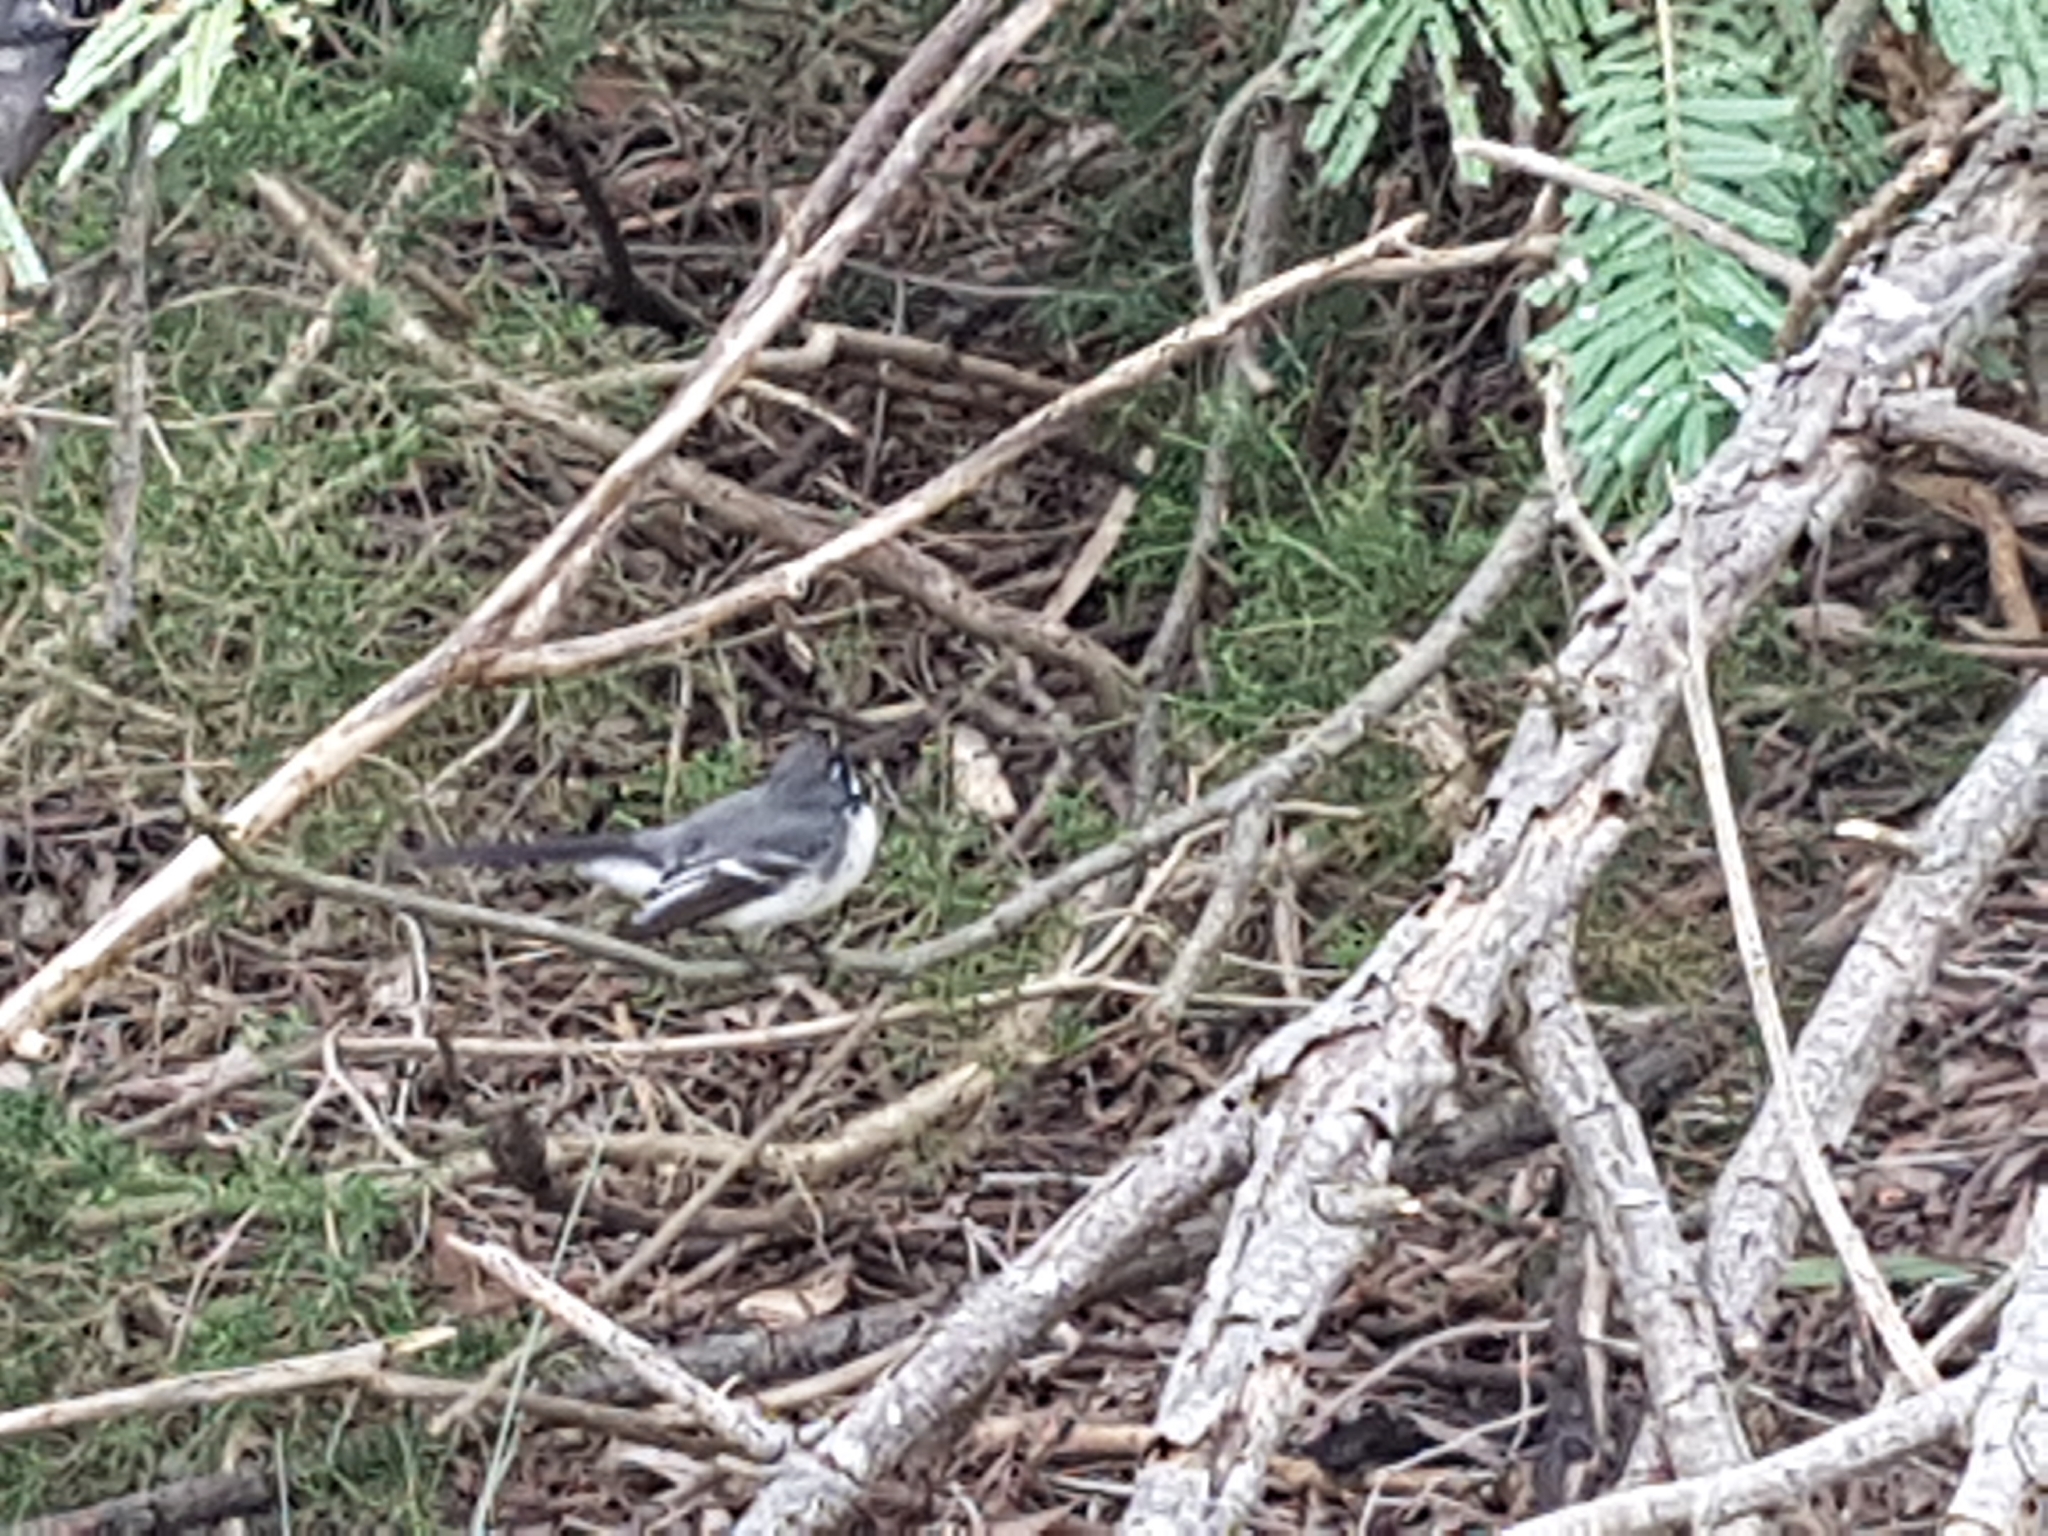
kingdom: Animalia
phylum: Chordata
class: Aves
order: Passeriformes
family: Rhipiduridae
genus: Rhipidura
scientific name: Rhipidura albiscapa
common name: Grey fantail
